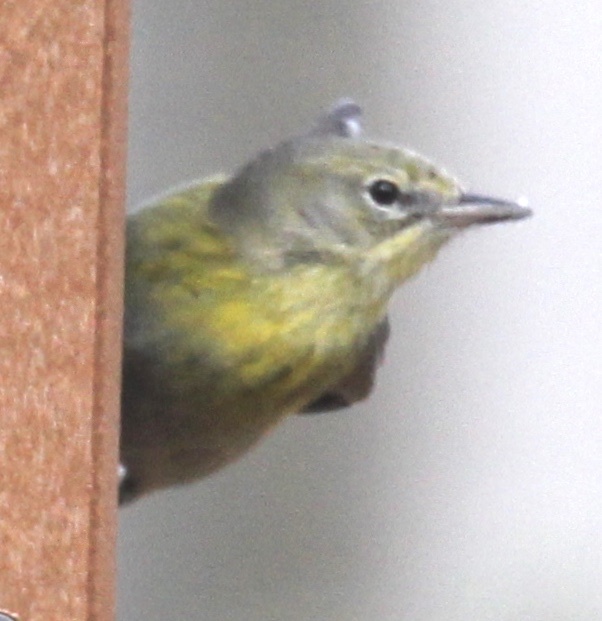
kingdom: Animalia
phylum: Chordata
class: Aves
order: Passeriformes
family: Parulidae
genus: Setophaga
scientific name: Setophaga pinus
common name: Pine warbler
